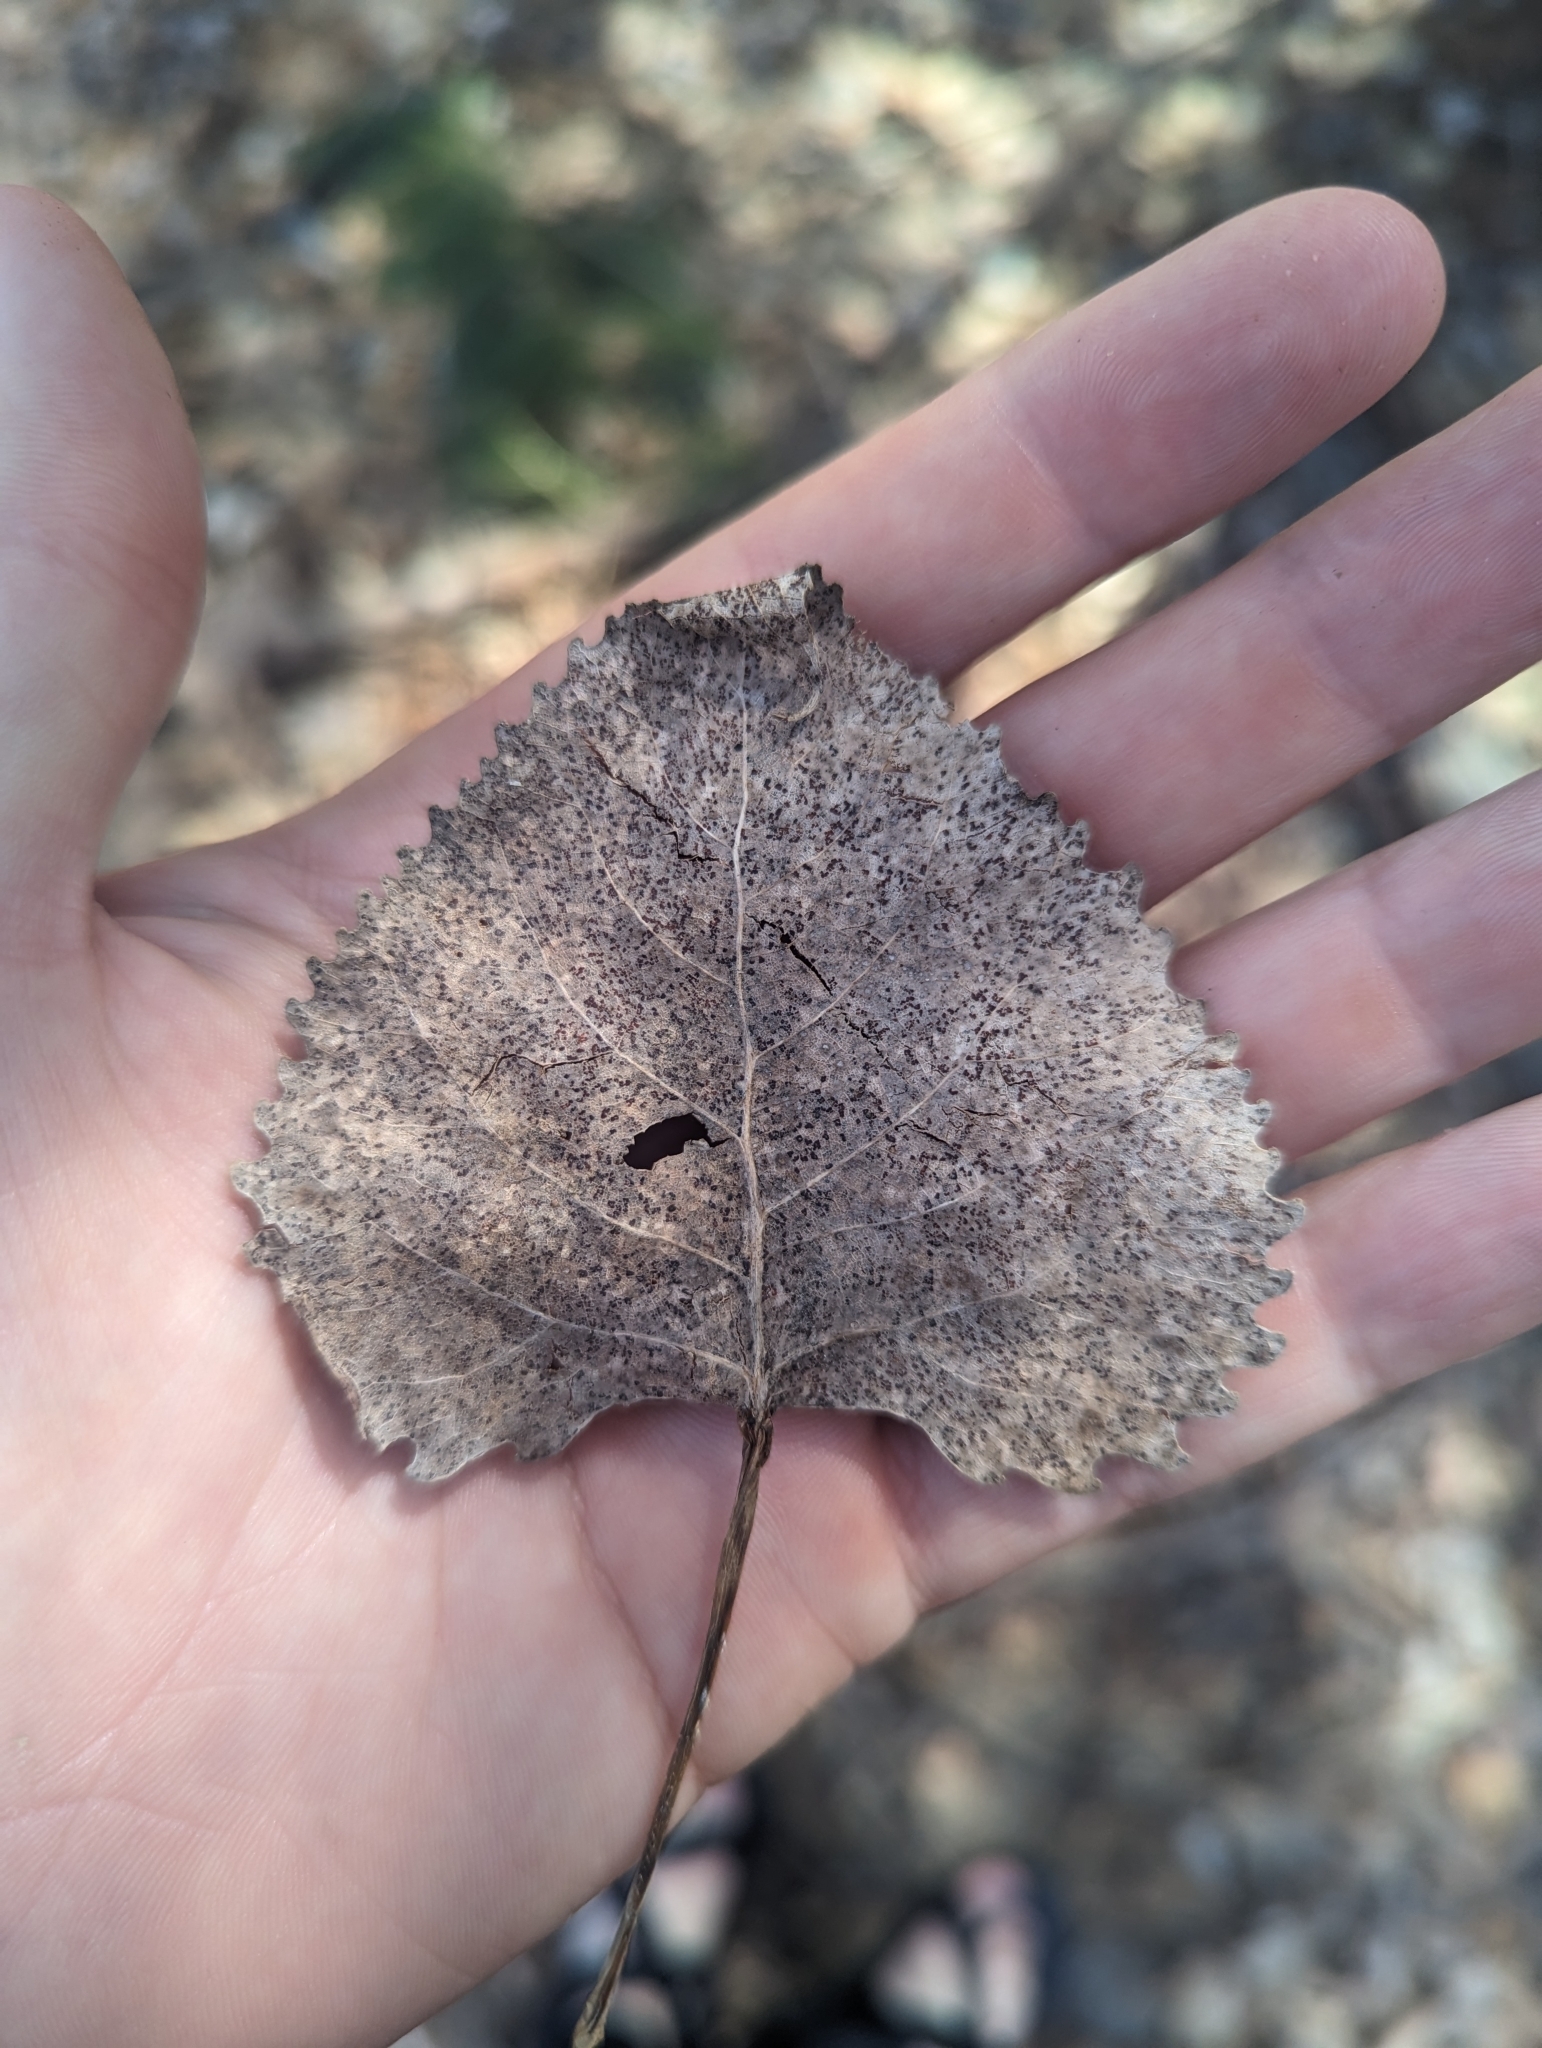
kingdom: Plantae
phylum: Tracheophyta
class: Magnoliopsida
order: Malpighiales
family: Salicaceae
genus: Populus
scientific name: Populus deltoides
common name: Eastern cottonwood
